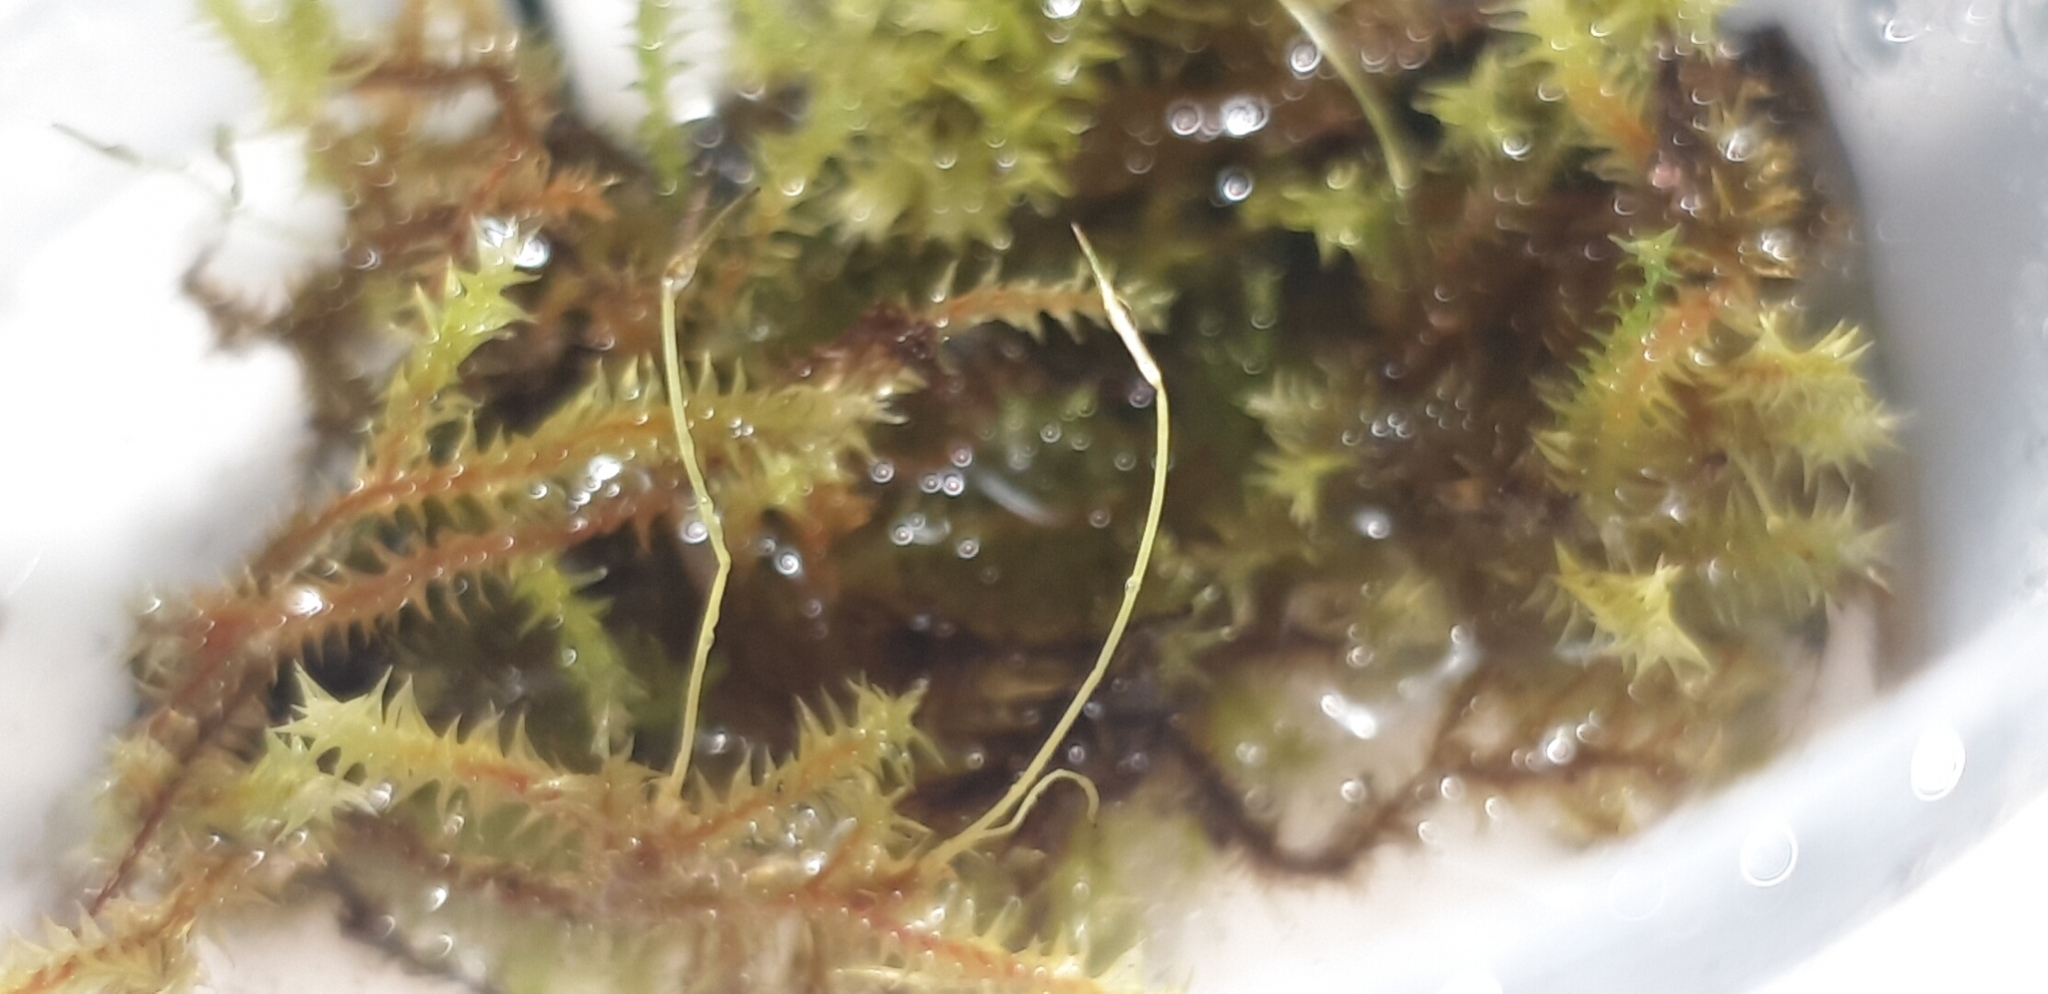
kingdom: Plantae
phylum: Bryophyta
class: Bryopsida
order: Pottiales
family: Pottiaceae
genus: Triquetrella
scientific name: Triquetrella papillata
